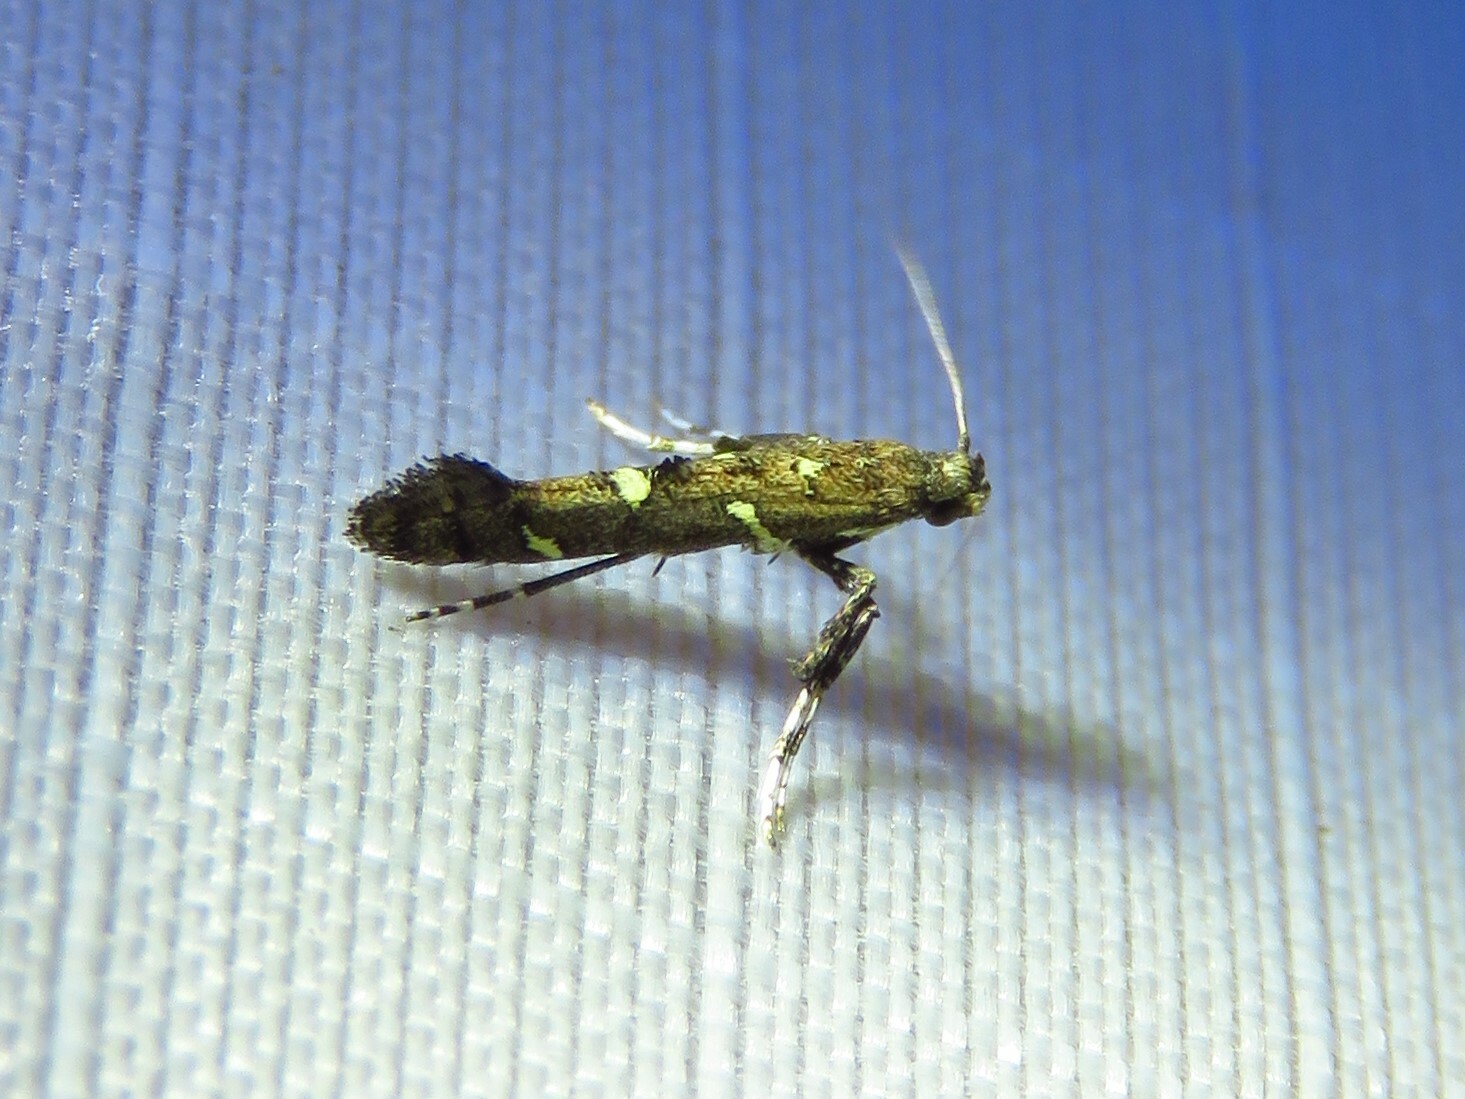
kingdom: Animalia
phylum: Arthropoda
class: Insecta
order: Lepidoptera
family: Gracillariidae
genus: Caloptilia
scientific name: Caloptilia triadicae
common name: Tallow leaf roller
